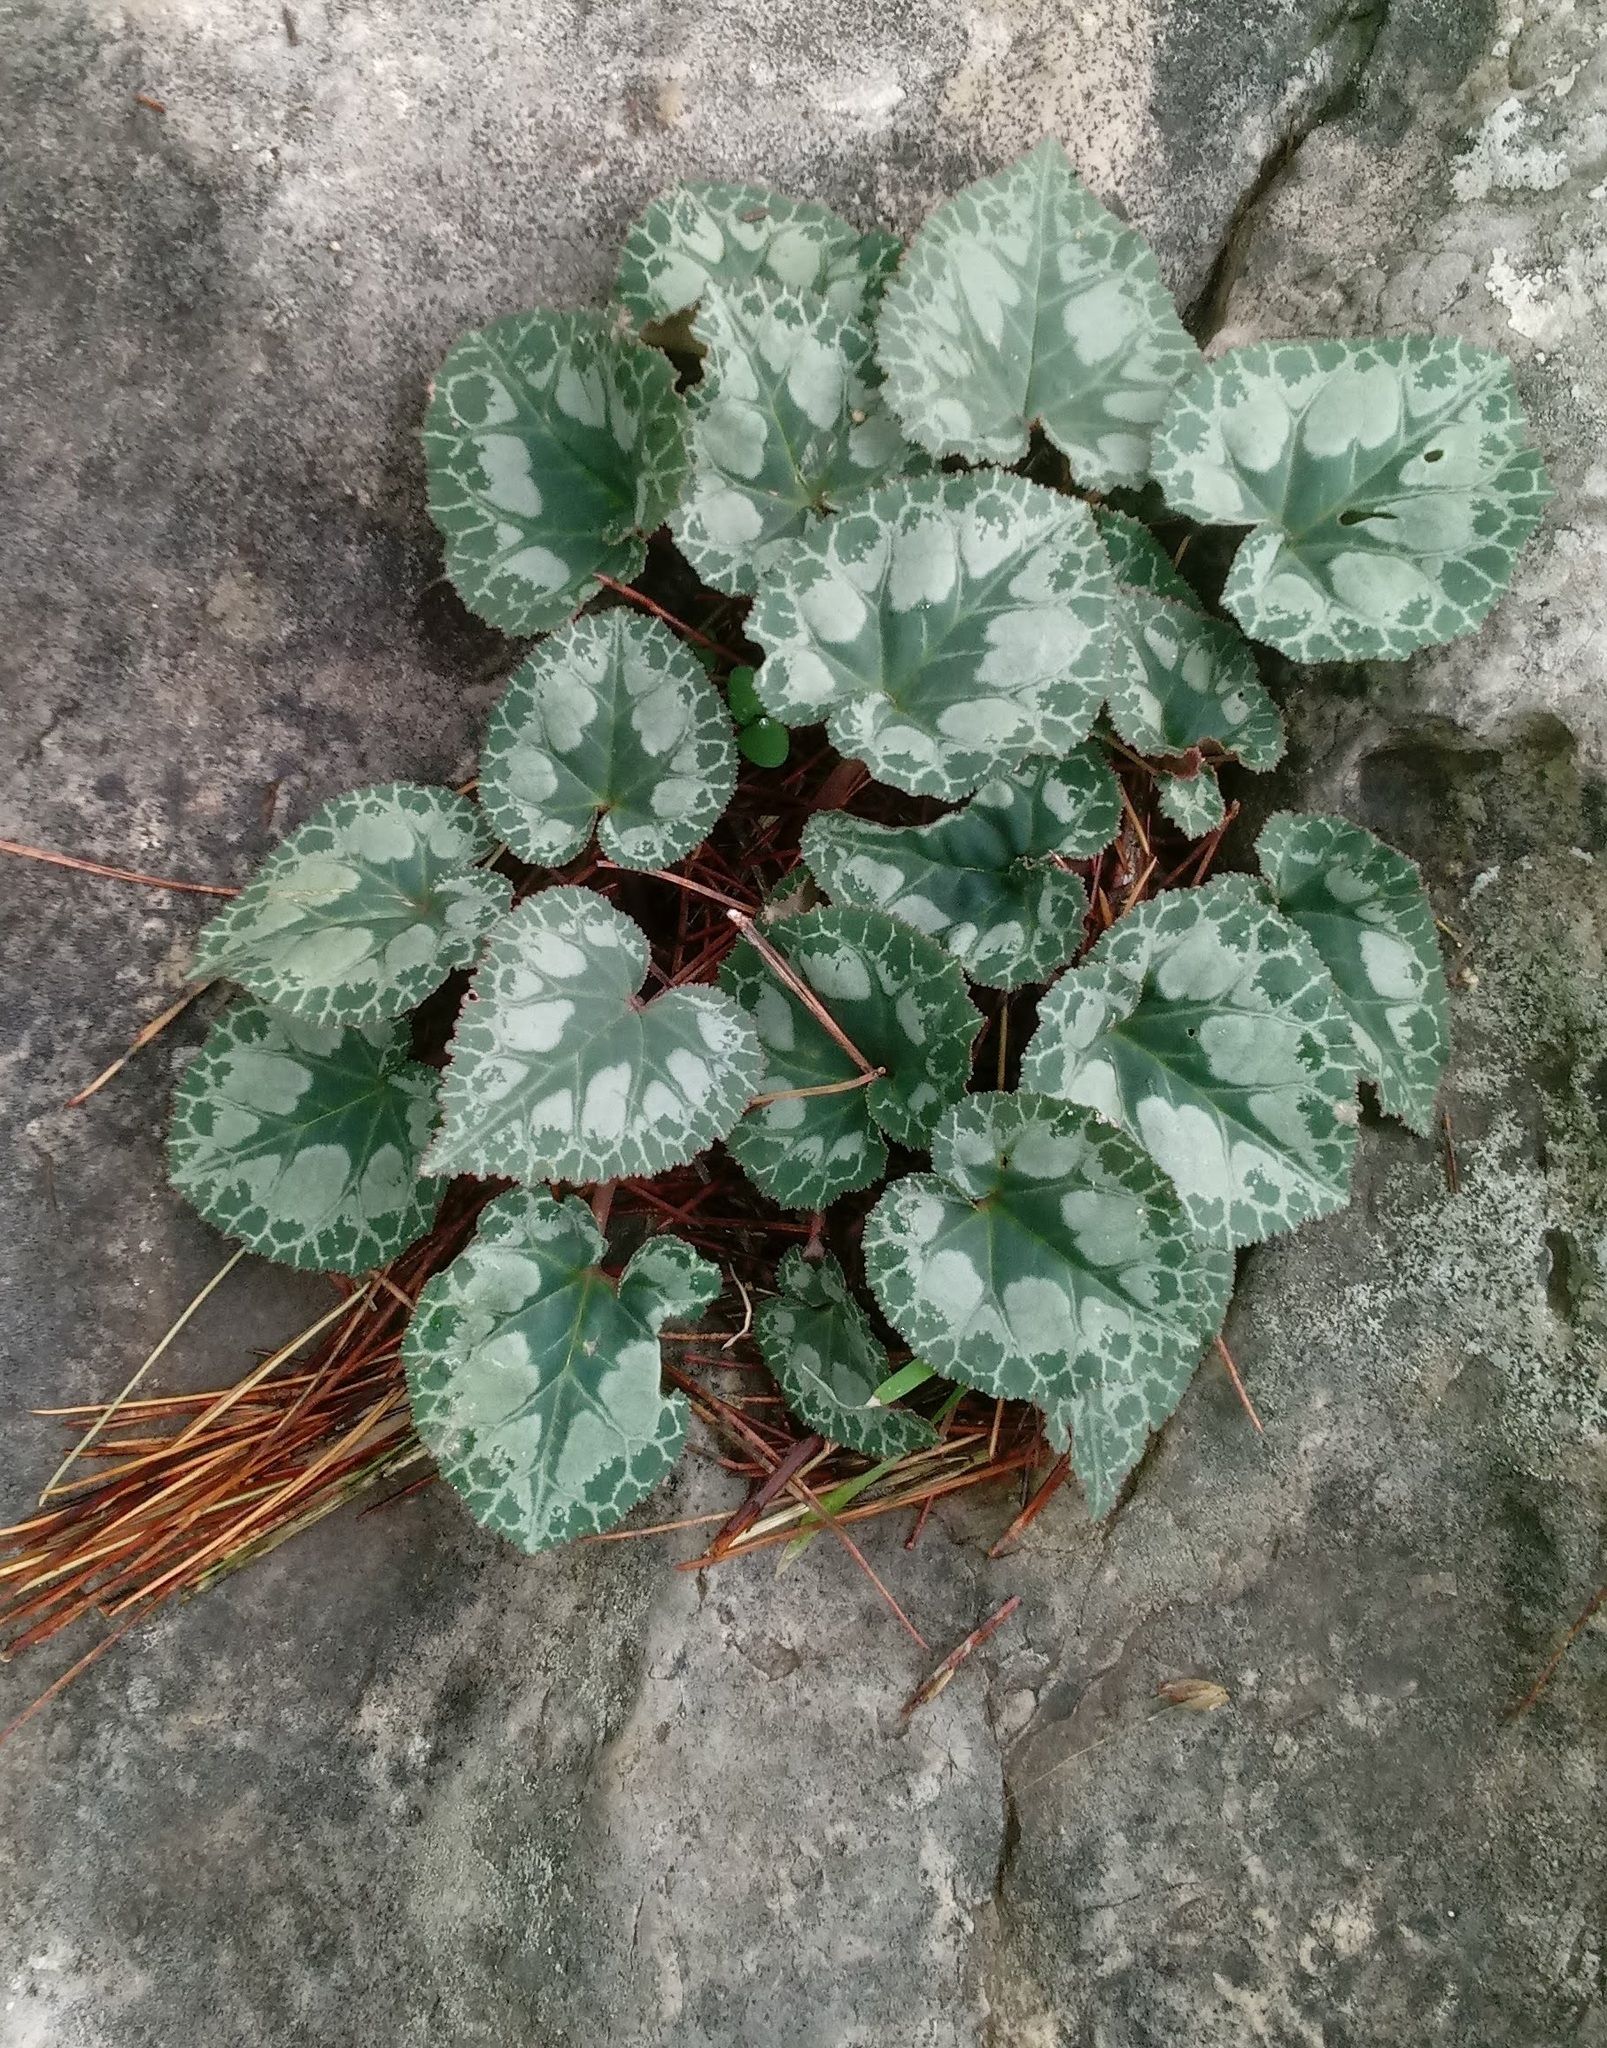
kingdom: Plantae
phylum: Tracheophyta
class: Magnoliopsida
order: Ericales
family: Primulaceae
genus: Cyclamen
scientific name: Cyclamen persicum
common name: Florist's cyclamen
